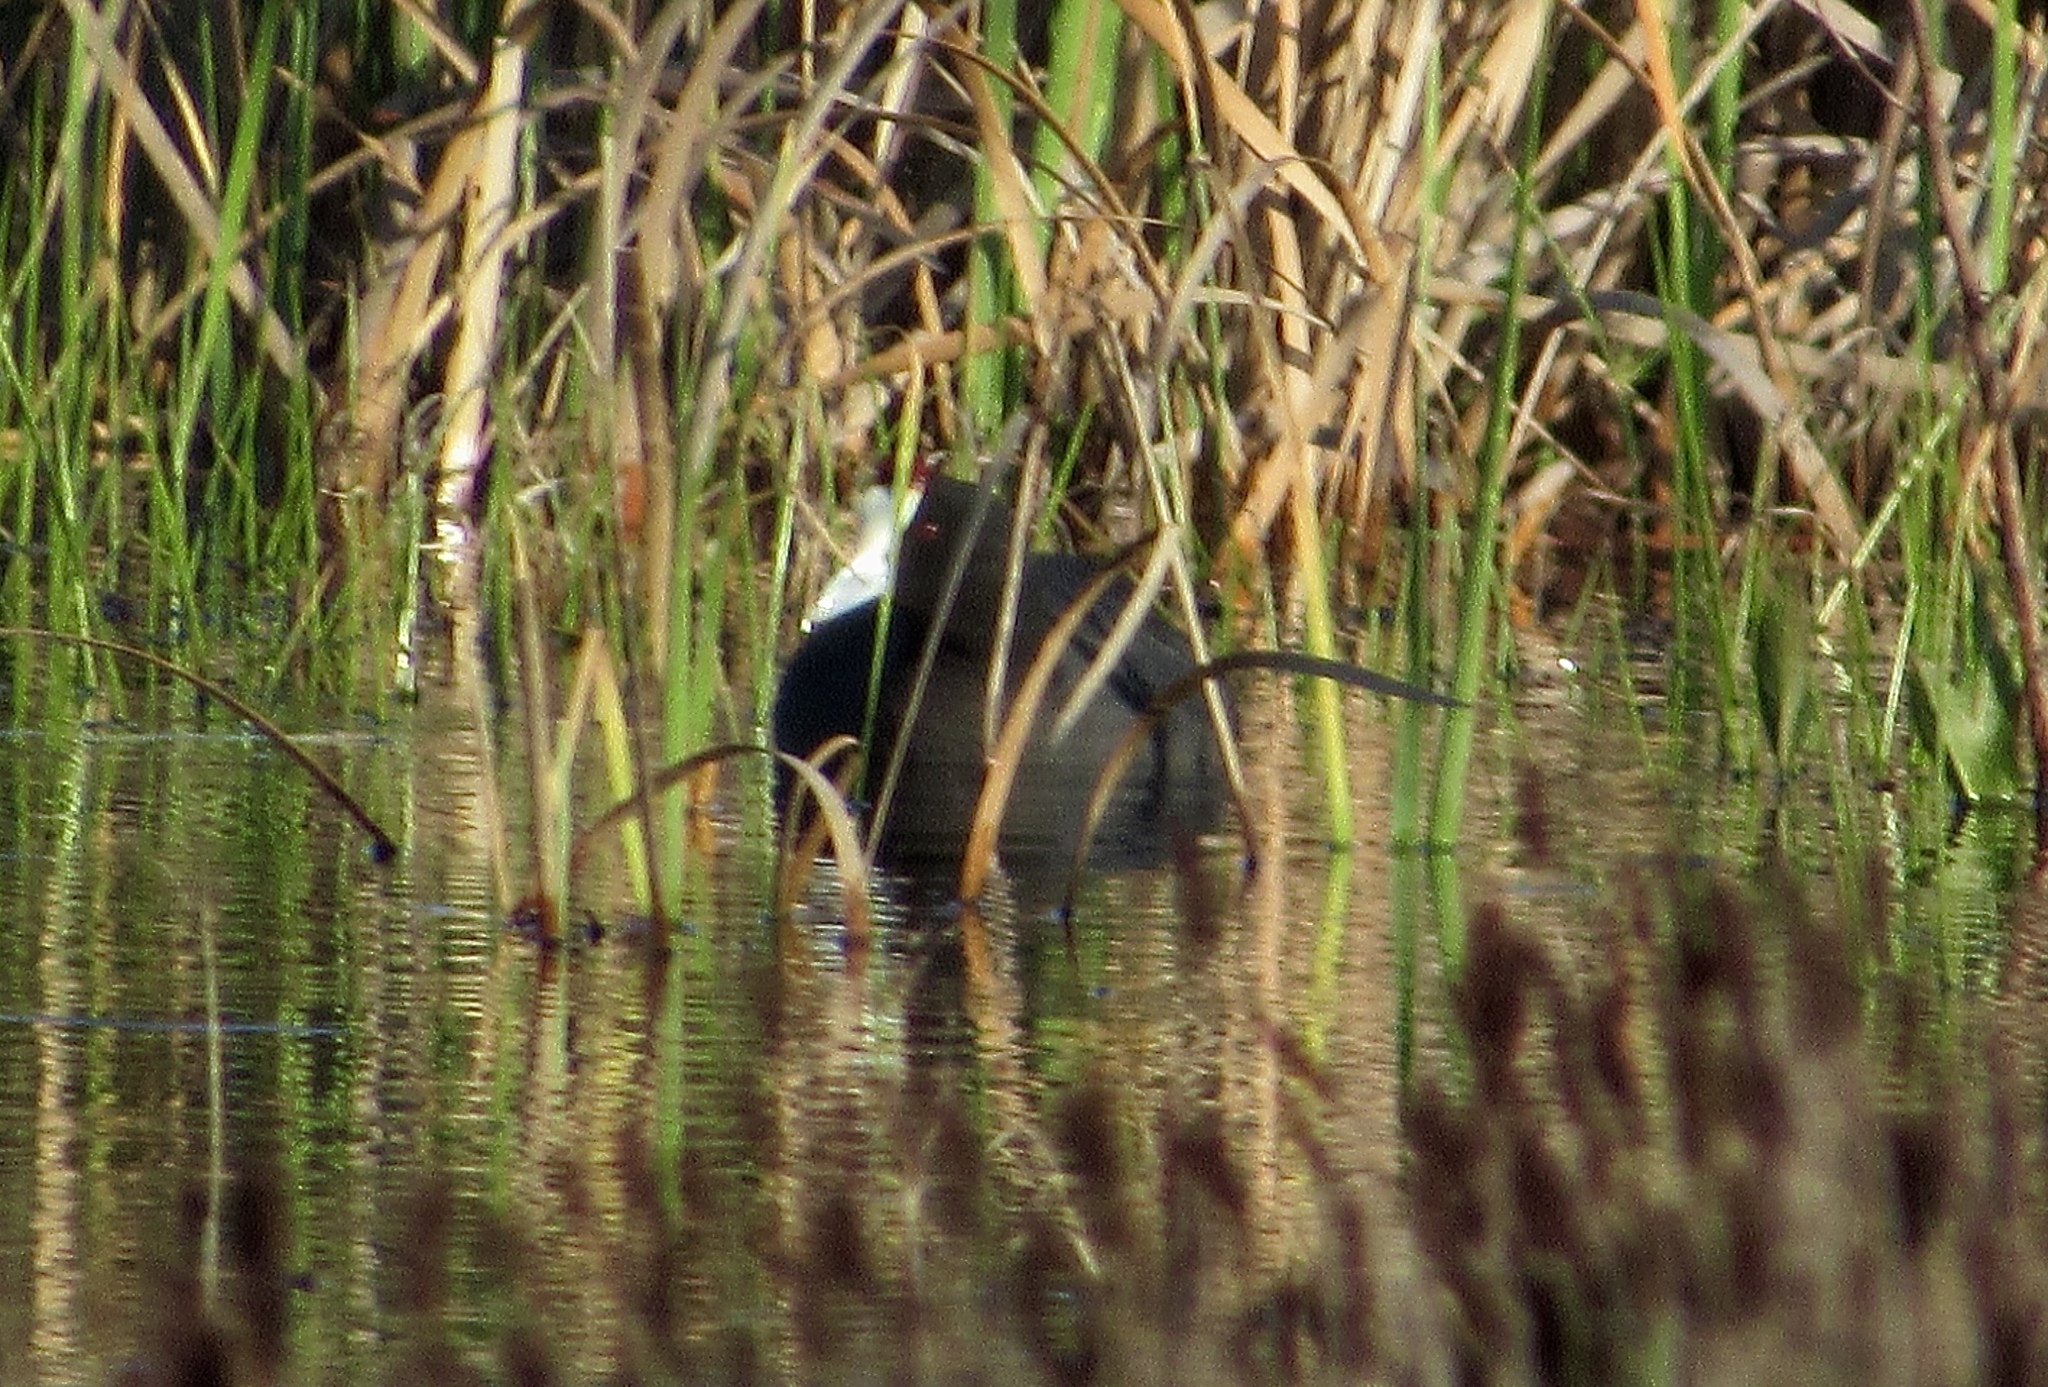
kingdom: Animalia
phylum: Chordata
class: Aves
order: Gruiformes
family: Rallidae
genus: Fulica
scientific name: Fulica cristata
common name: Red-knobbed coot
